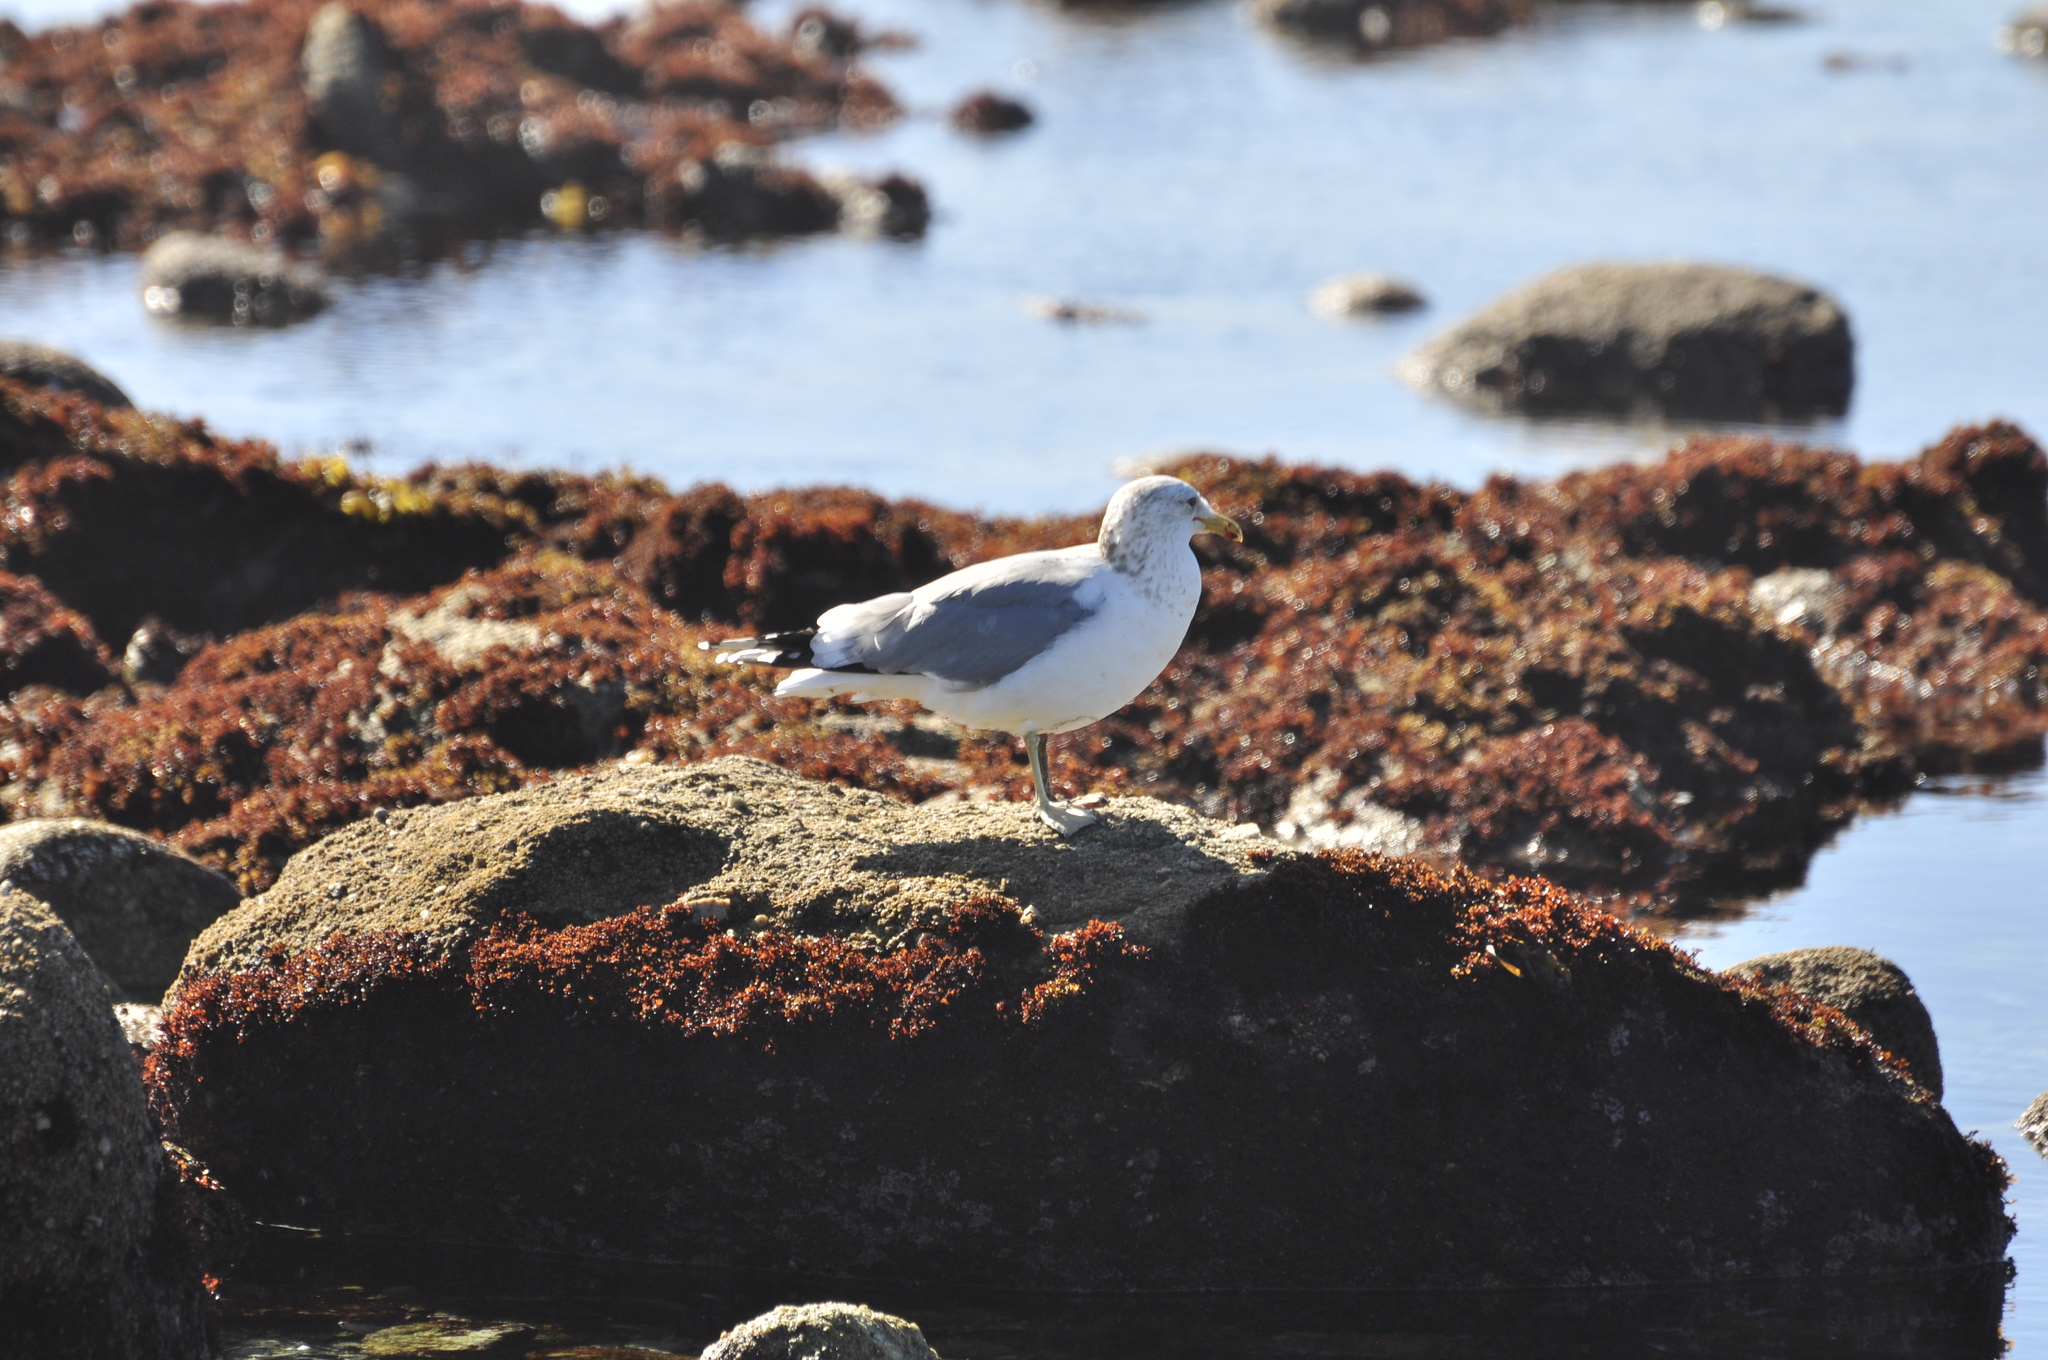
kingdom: Animalia
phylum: Chordata
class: Aves
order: Charadriiformes
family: Laridae
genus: Larus
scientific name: Larus californicus
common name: California gull
